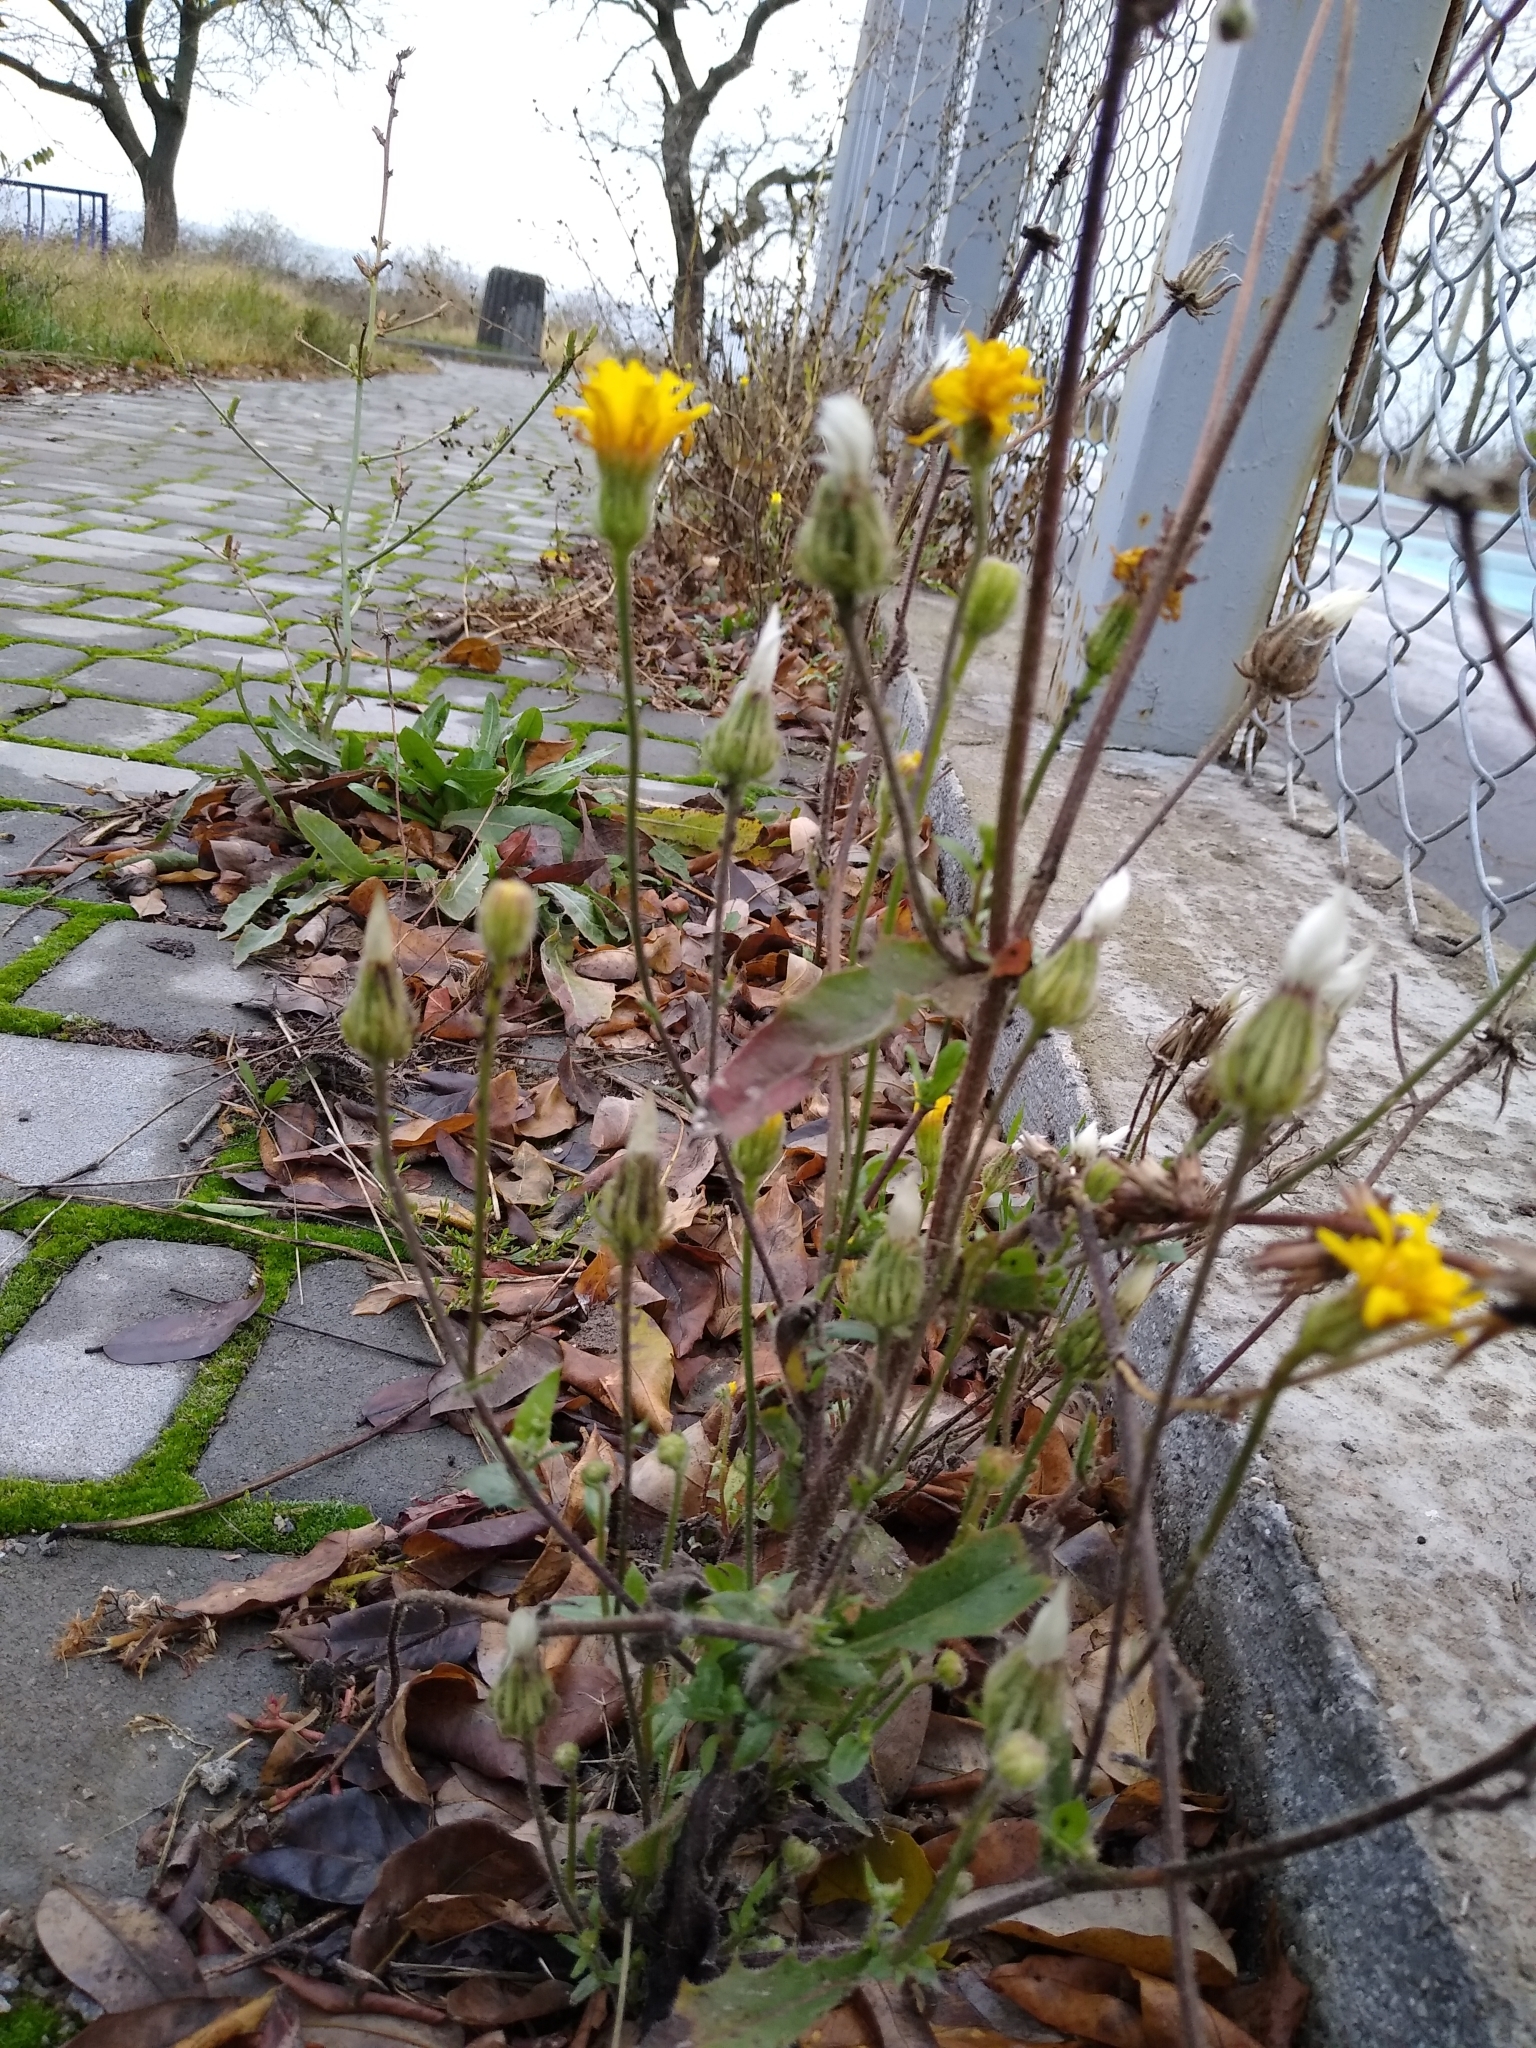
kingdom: Plantae
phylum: Tracheophyta
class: Magnoliopsida
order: Asterales
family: Asteraceae
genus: Crepis
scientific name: Crepis foetida
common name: Stinking hawk's-beard
